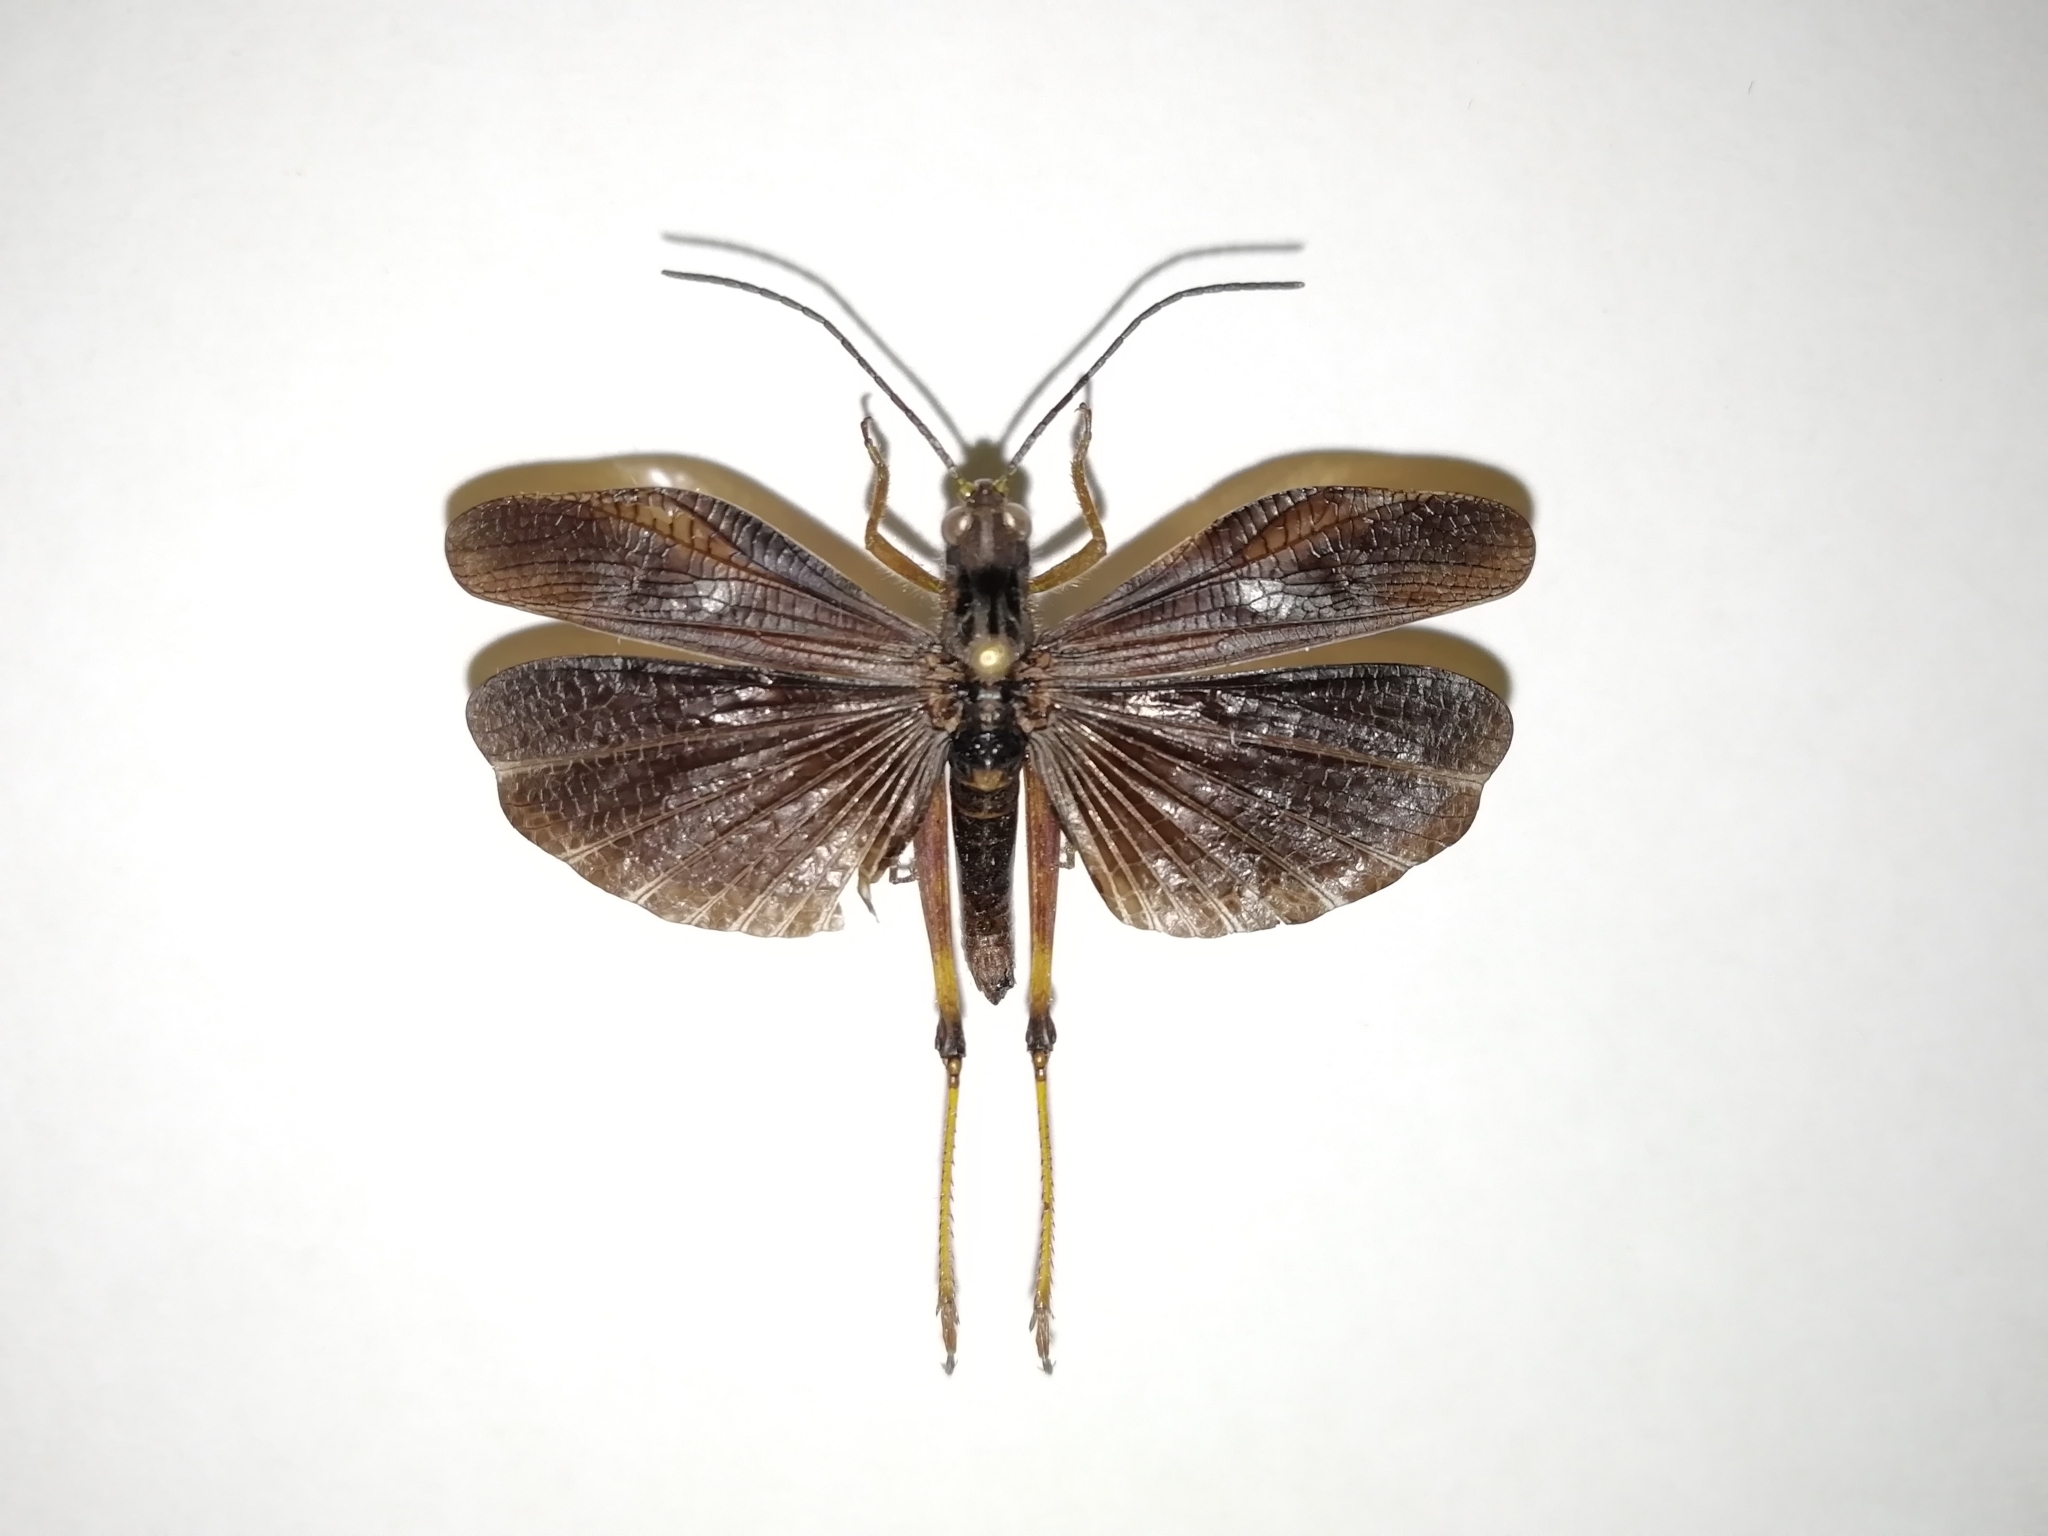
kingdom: Animalia
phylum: Arthropoda
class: Insecta
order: Orthoptera
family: Acrididae
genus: Megaulacobothrus
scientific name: Megaulacobothrus aethalinus
